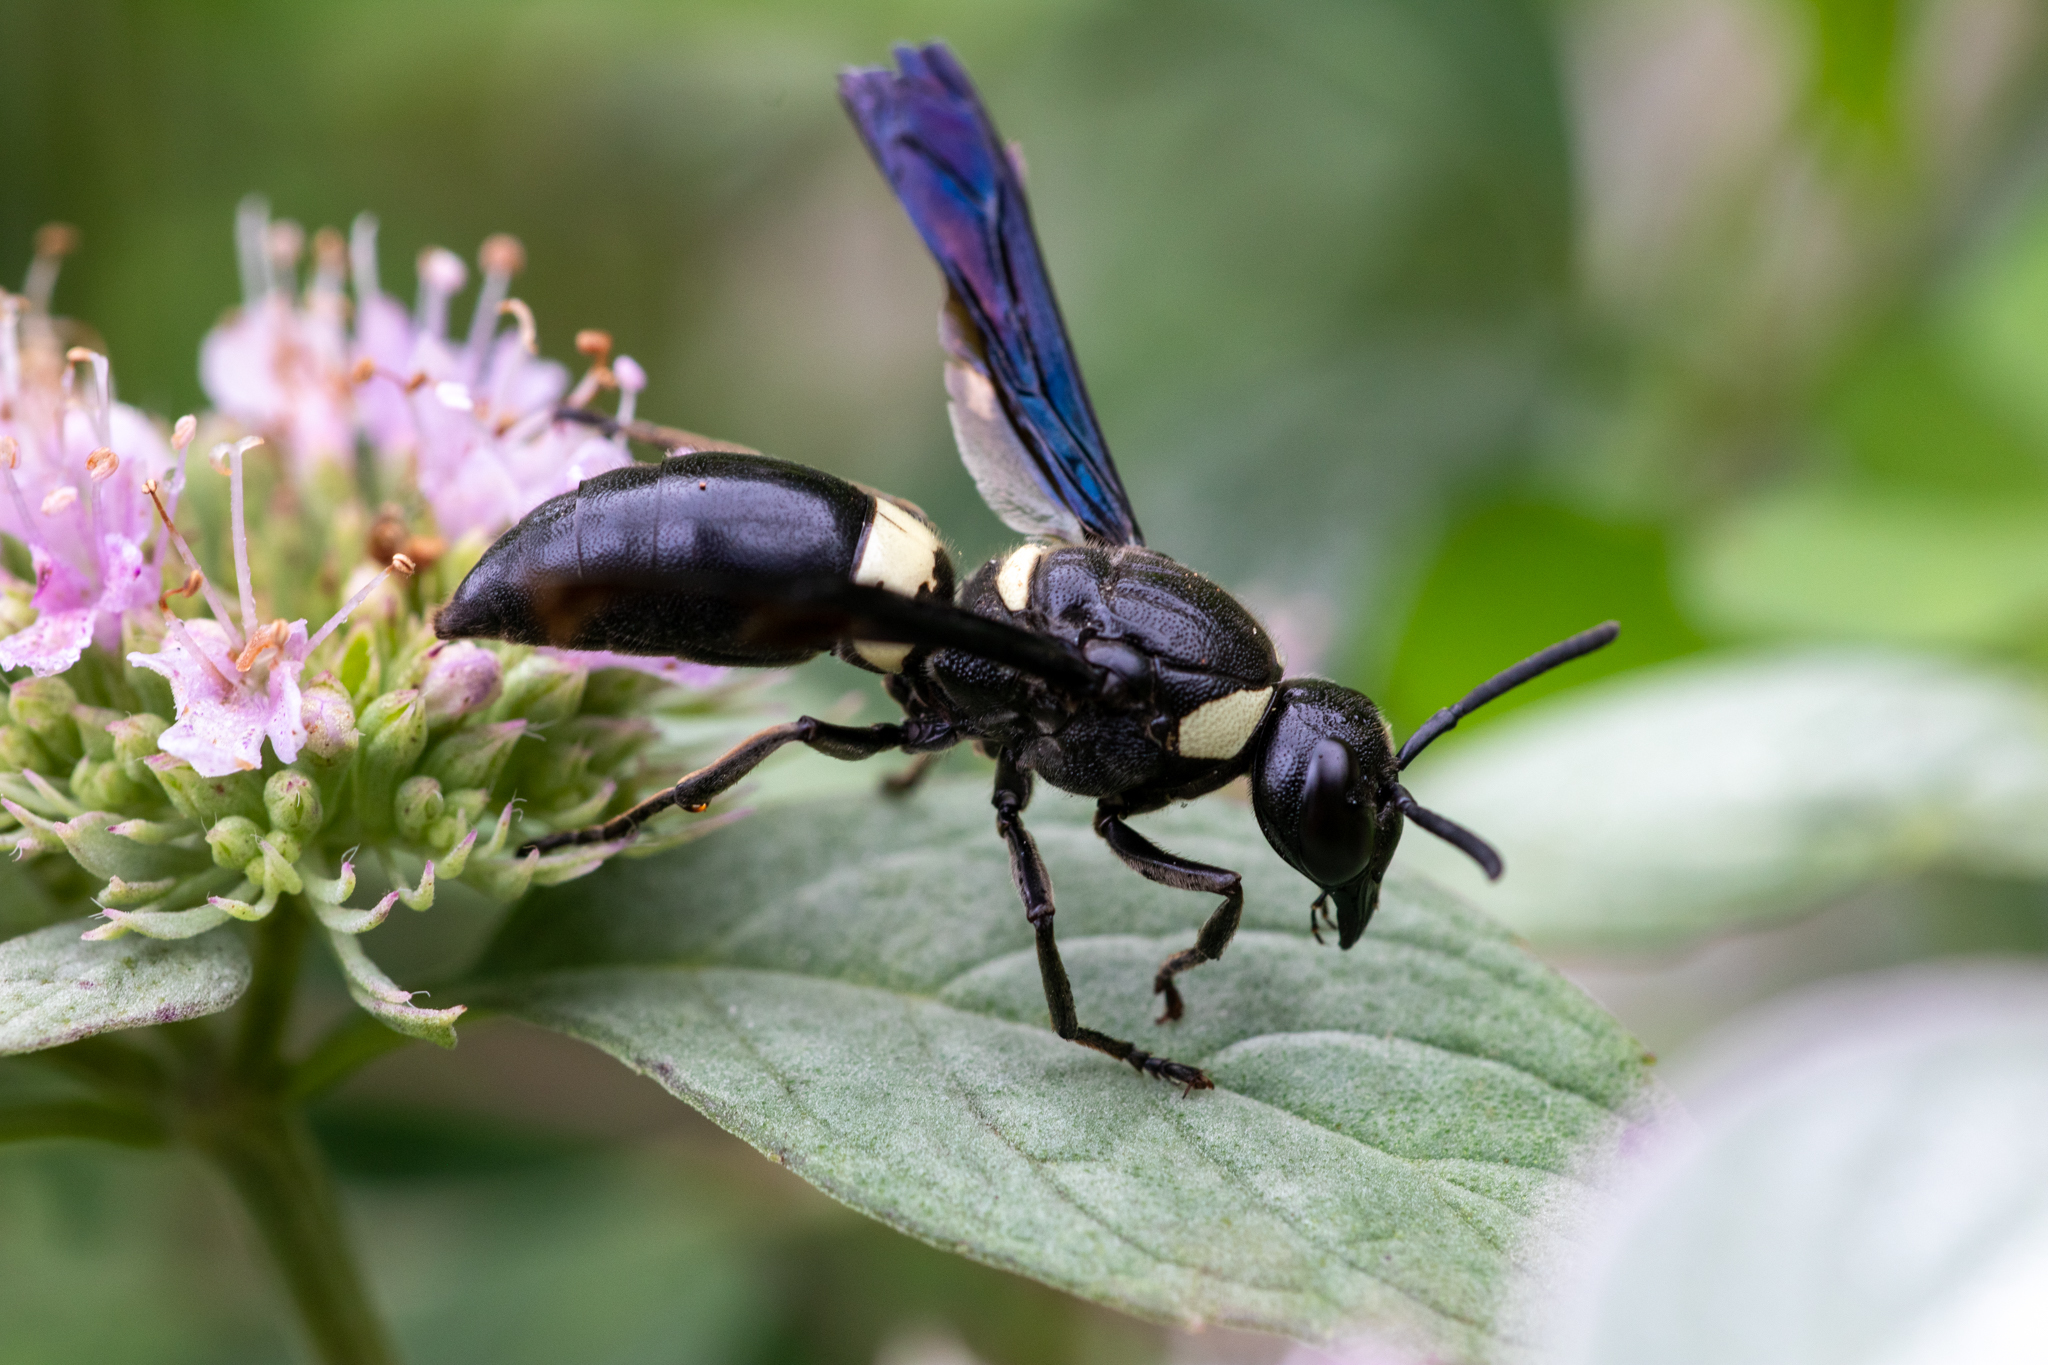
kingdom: Animalia
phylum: Arthropoda
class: Insecta
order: Hymenoptera
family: Eumenidae
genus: Monobia
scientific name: Monobia quadridens
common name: Four-toothed mason wasp
